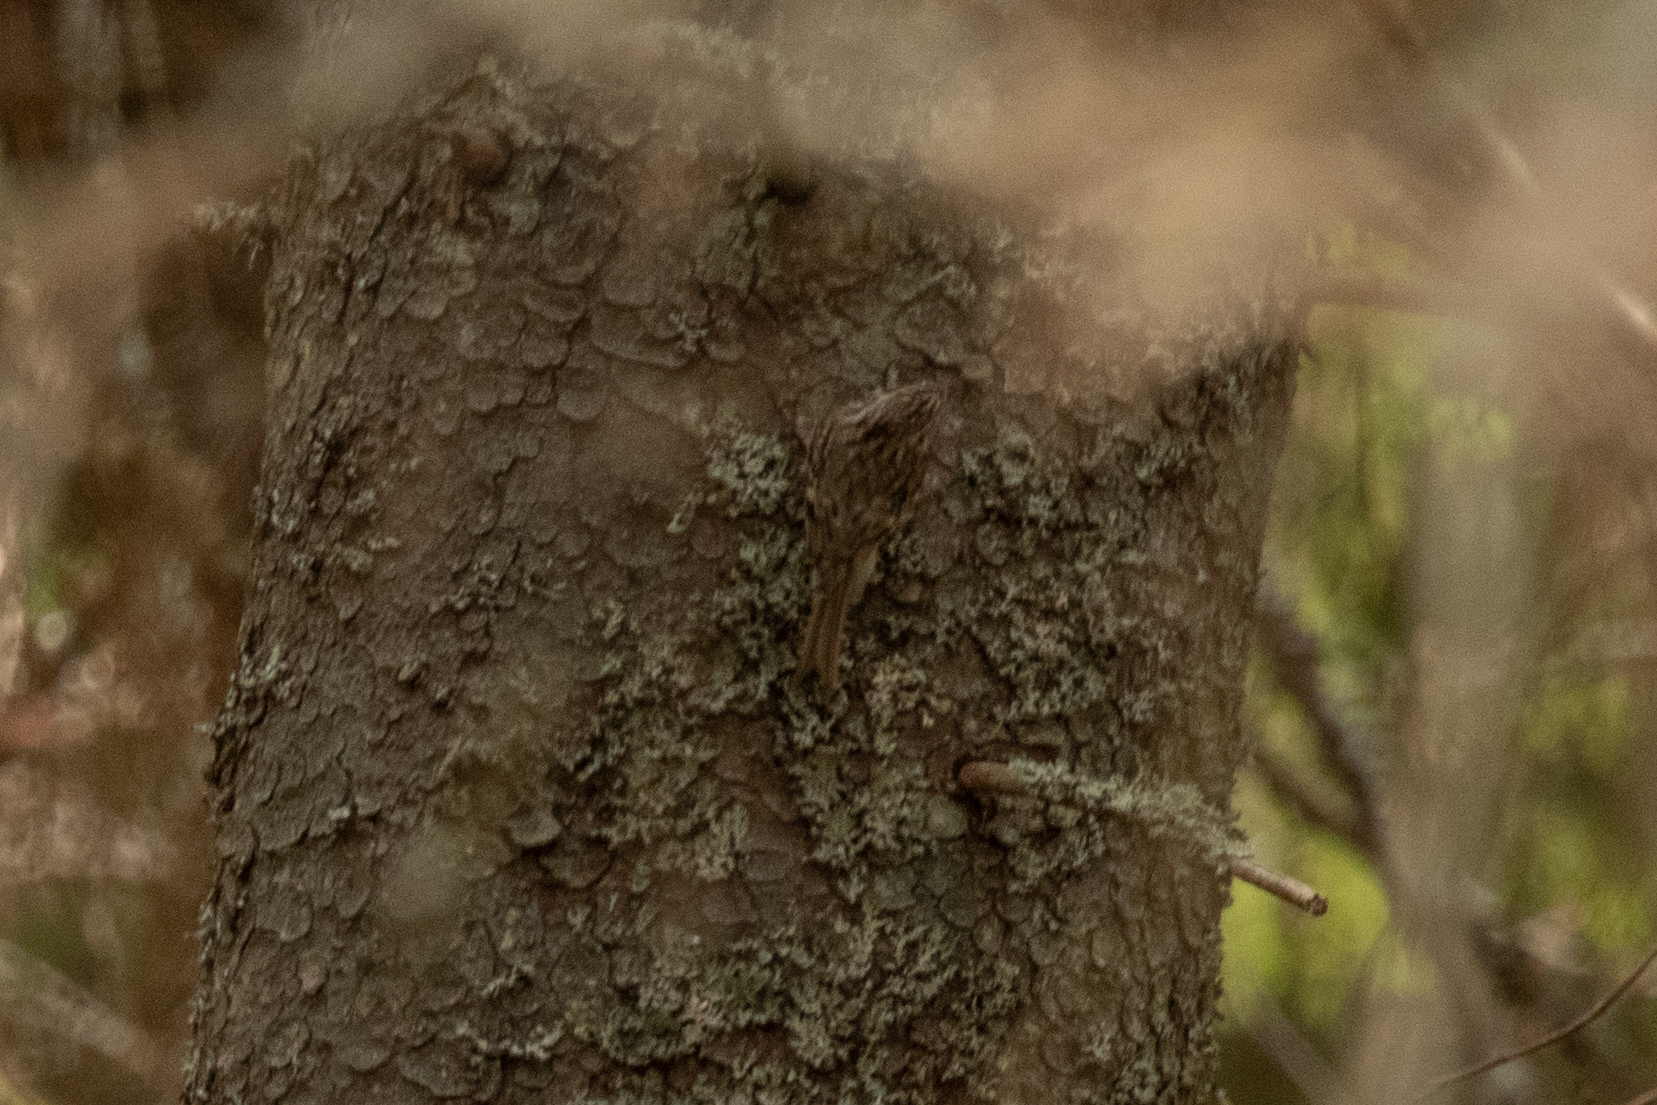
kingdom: Animalia
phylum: Chordata
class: Aves
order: Passeriformes
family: Certhiidae
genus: Certhia
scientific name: Certhia familiaris
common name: Eurasian treecreeper
